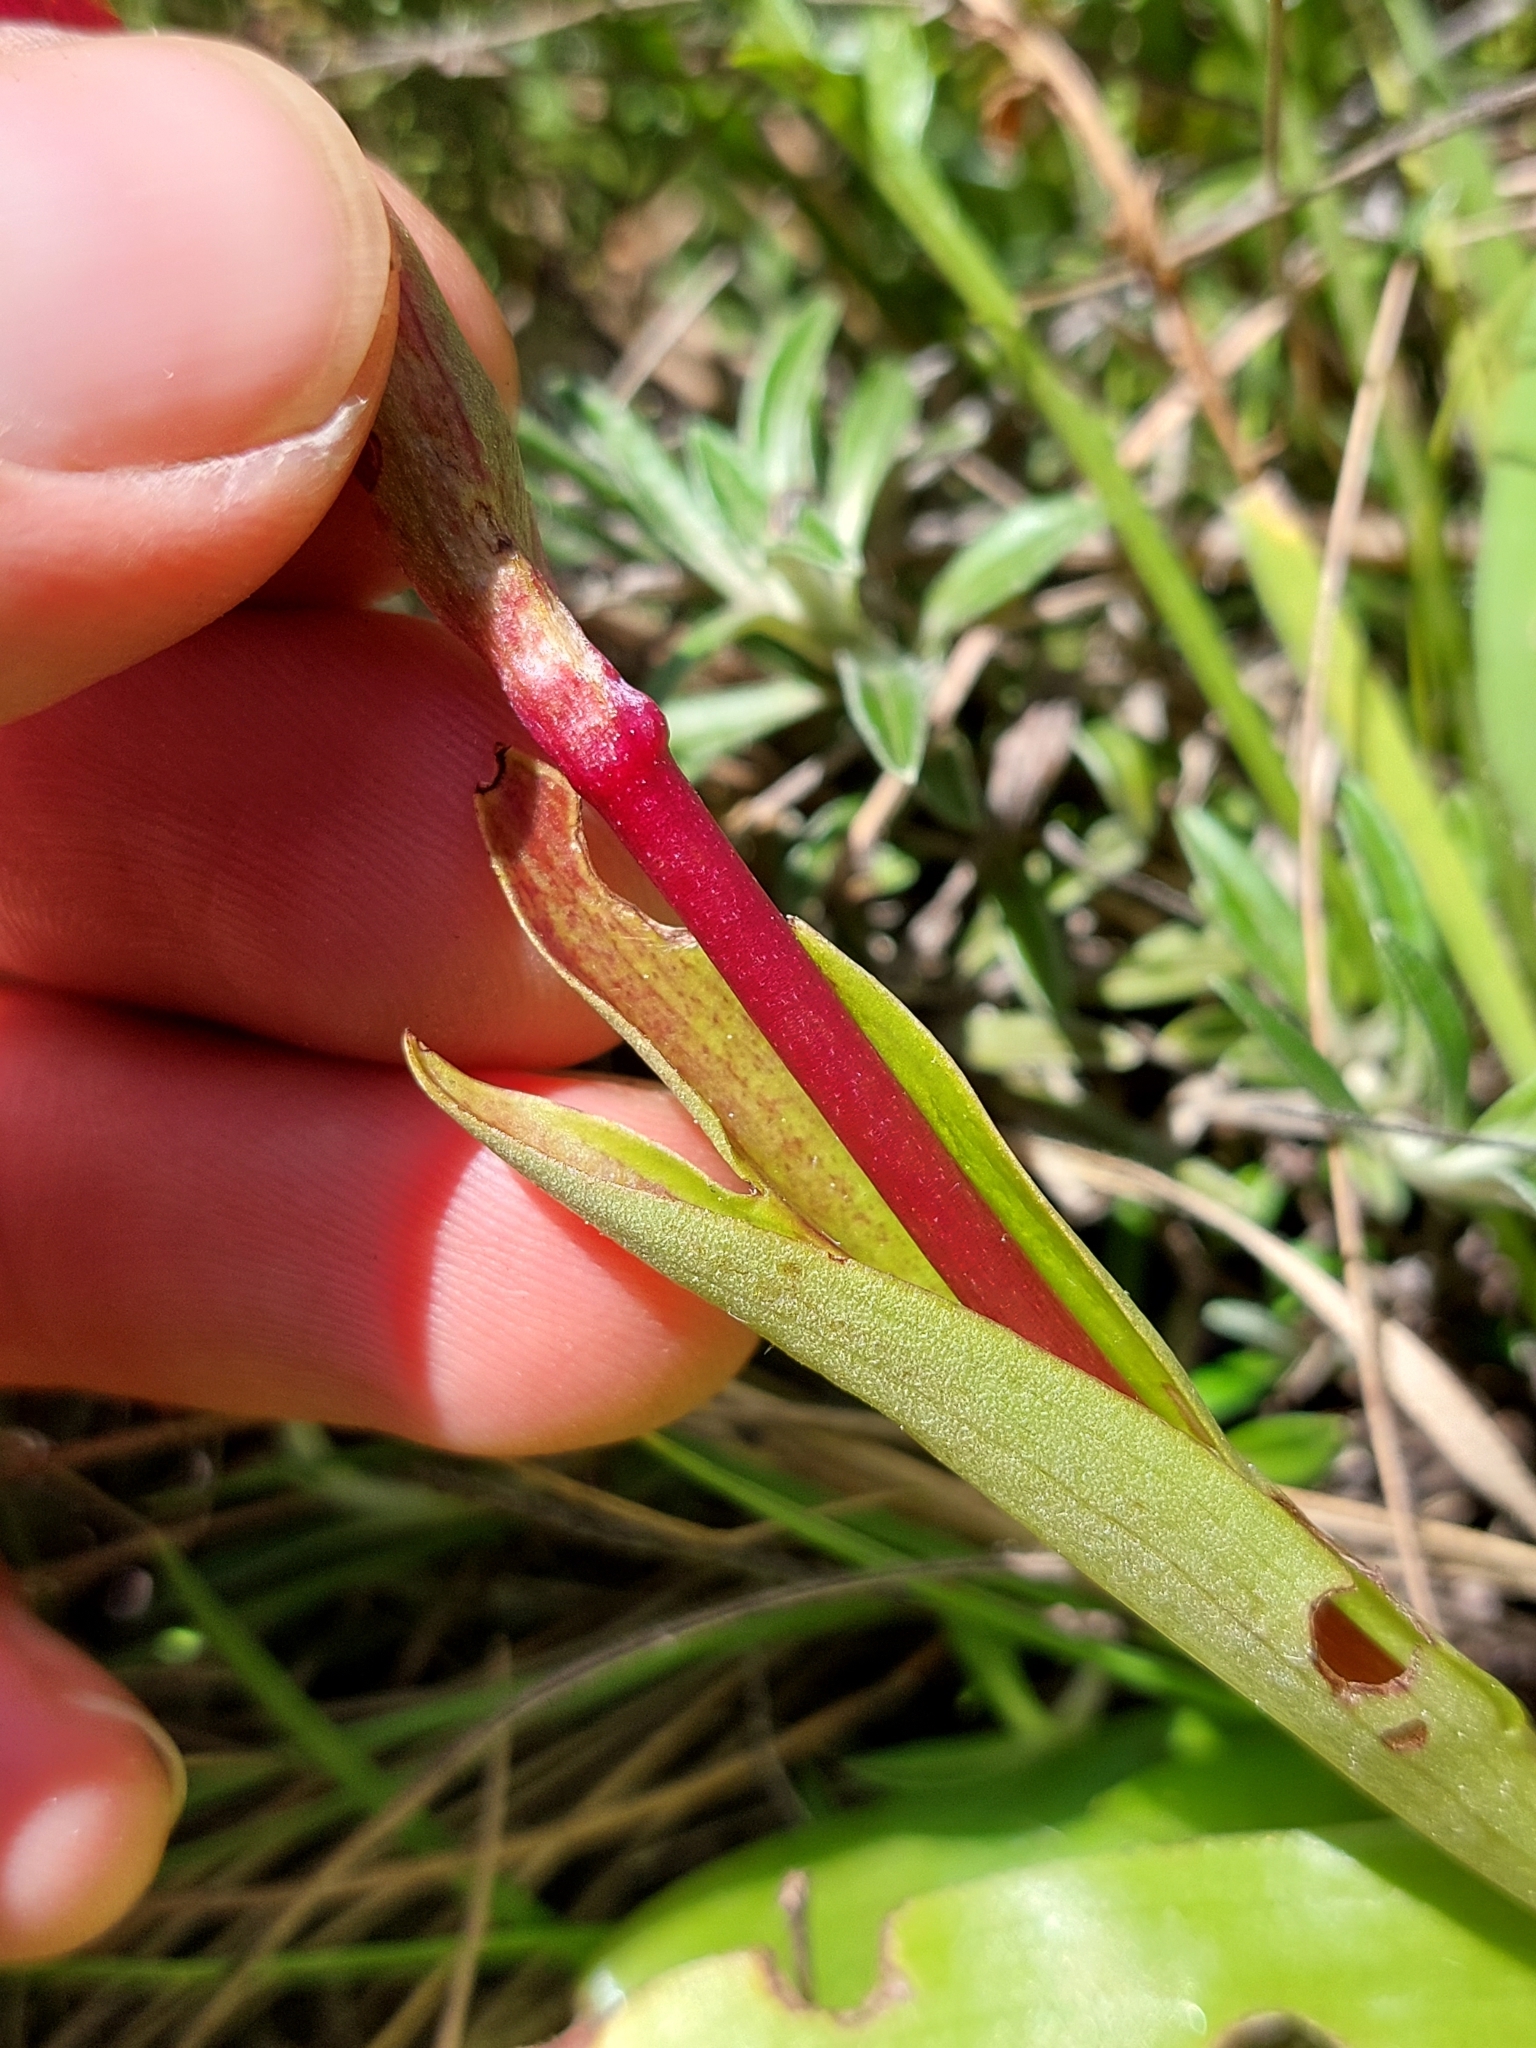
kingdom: Plantae
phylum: Tracheophyta
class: Liliopsida
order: Asparagales
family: Orchidaceae
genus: Pterygodium
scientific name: Pterygodium cooperi
